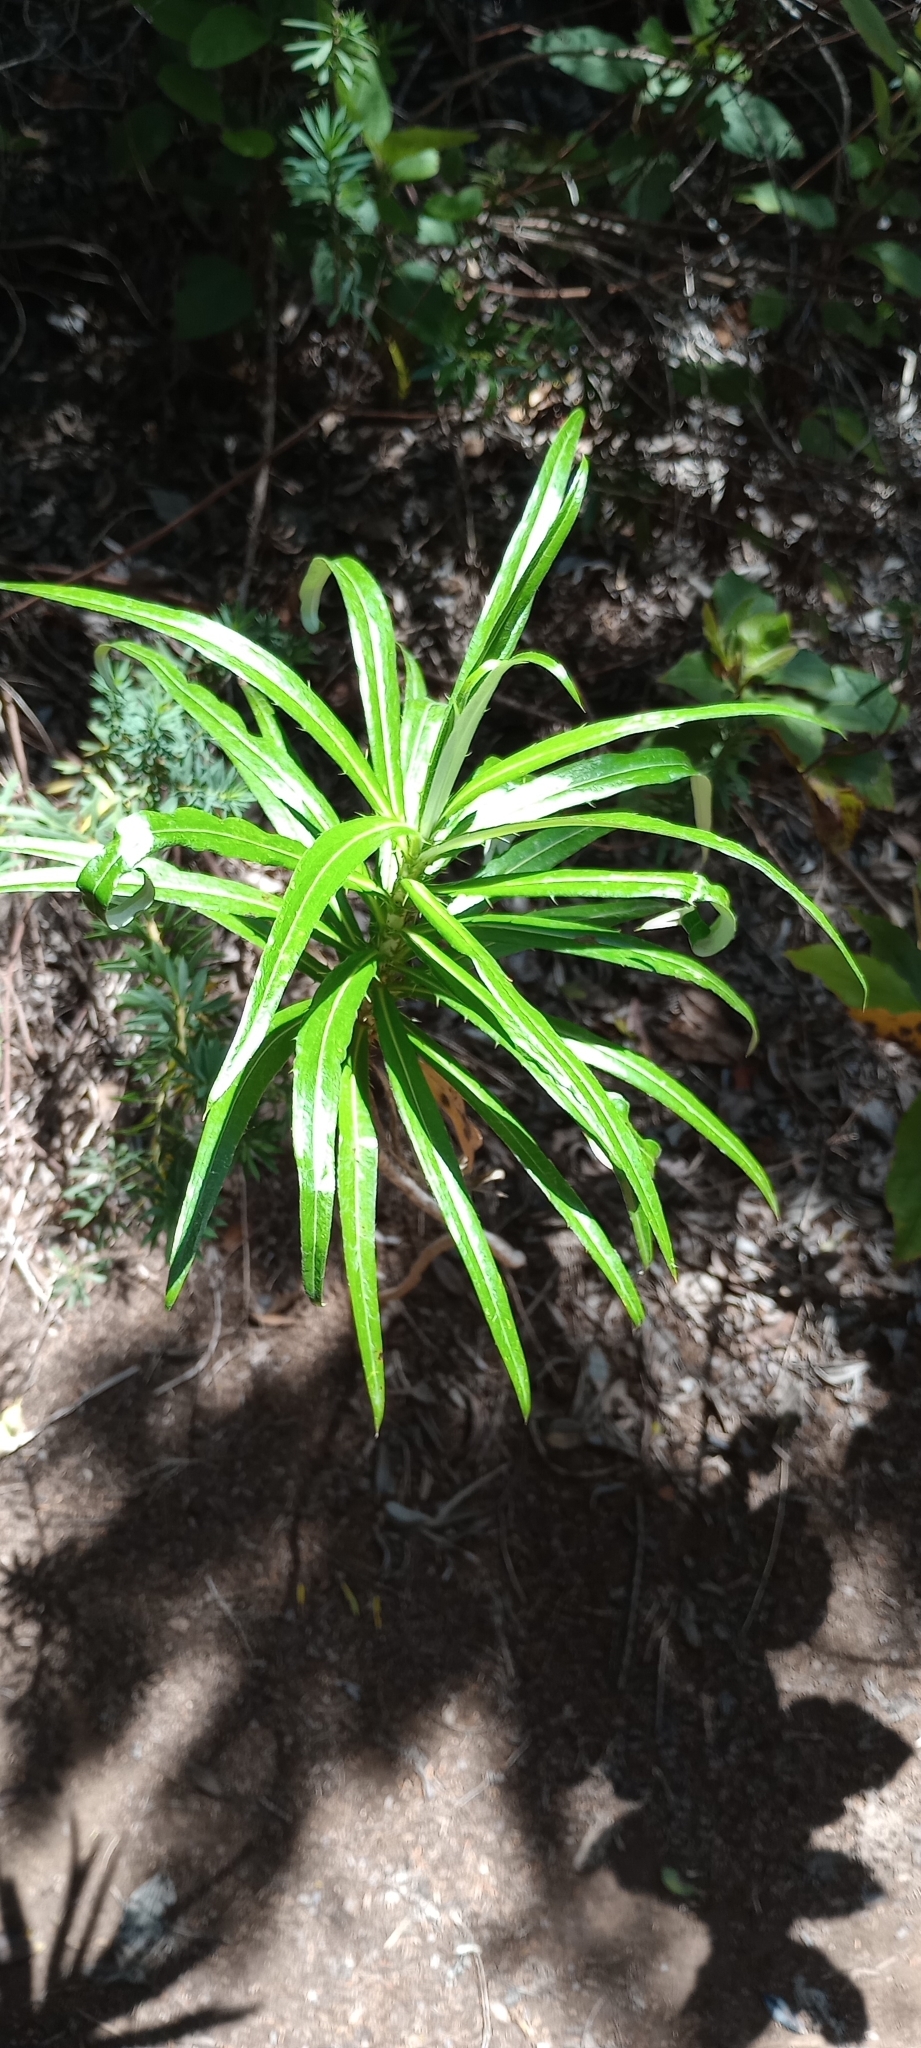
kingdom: Plantae
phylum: Tracheophyta
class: Magnoliopsida
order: Asterales
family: Asteraceae
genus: Carlina
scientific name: Carlina salicifolia
